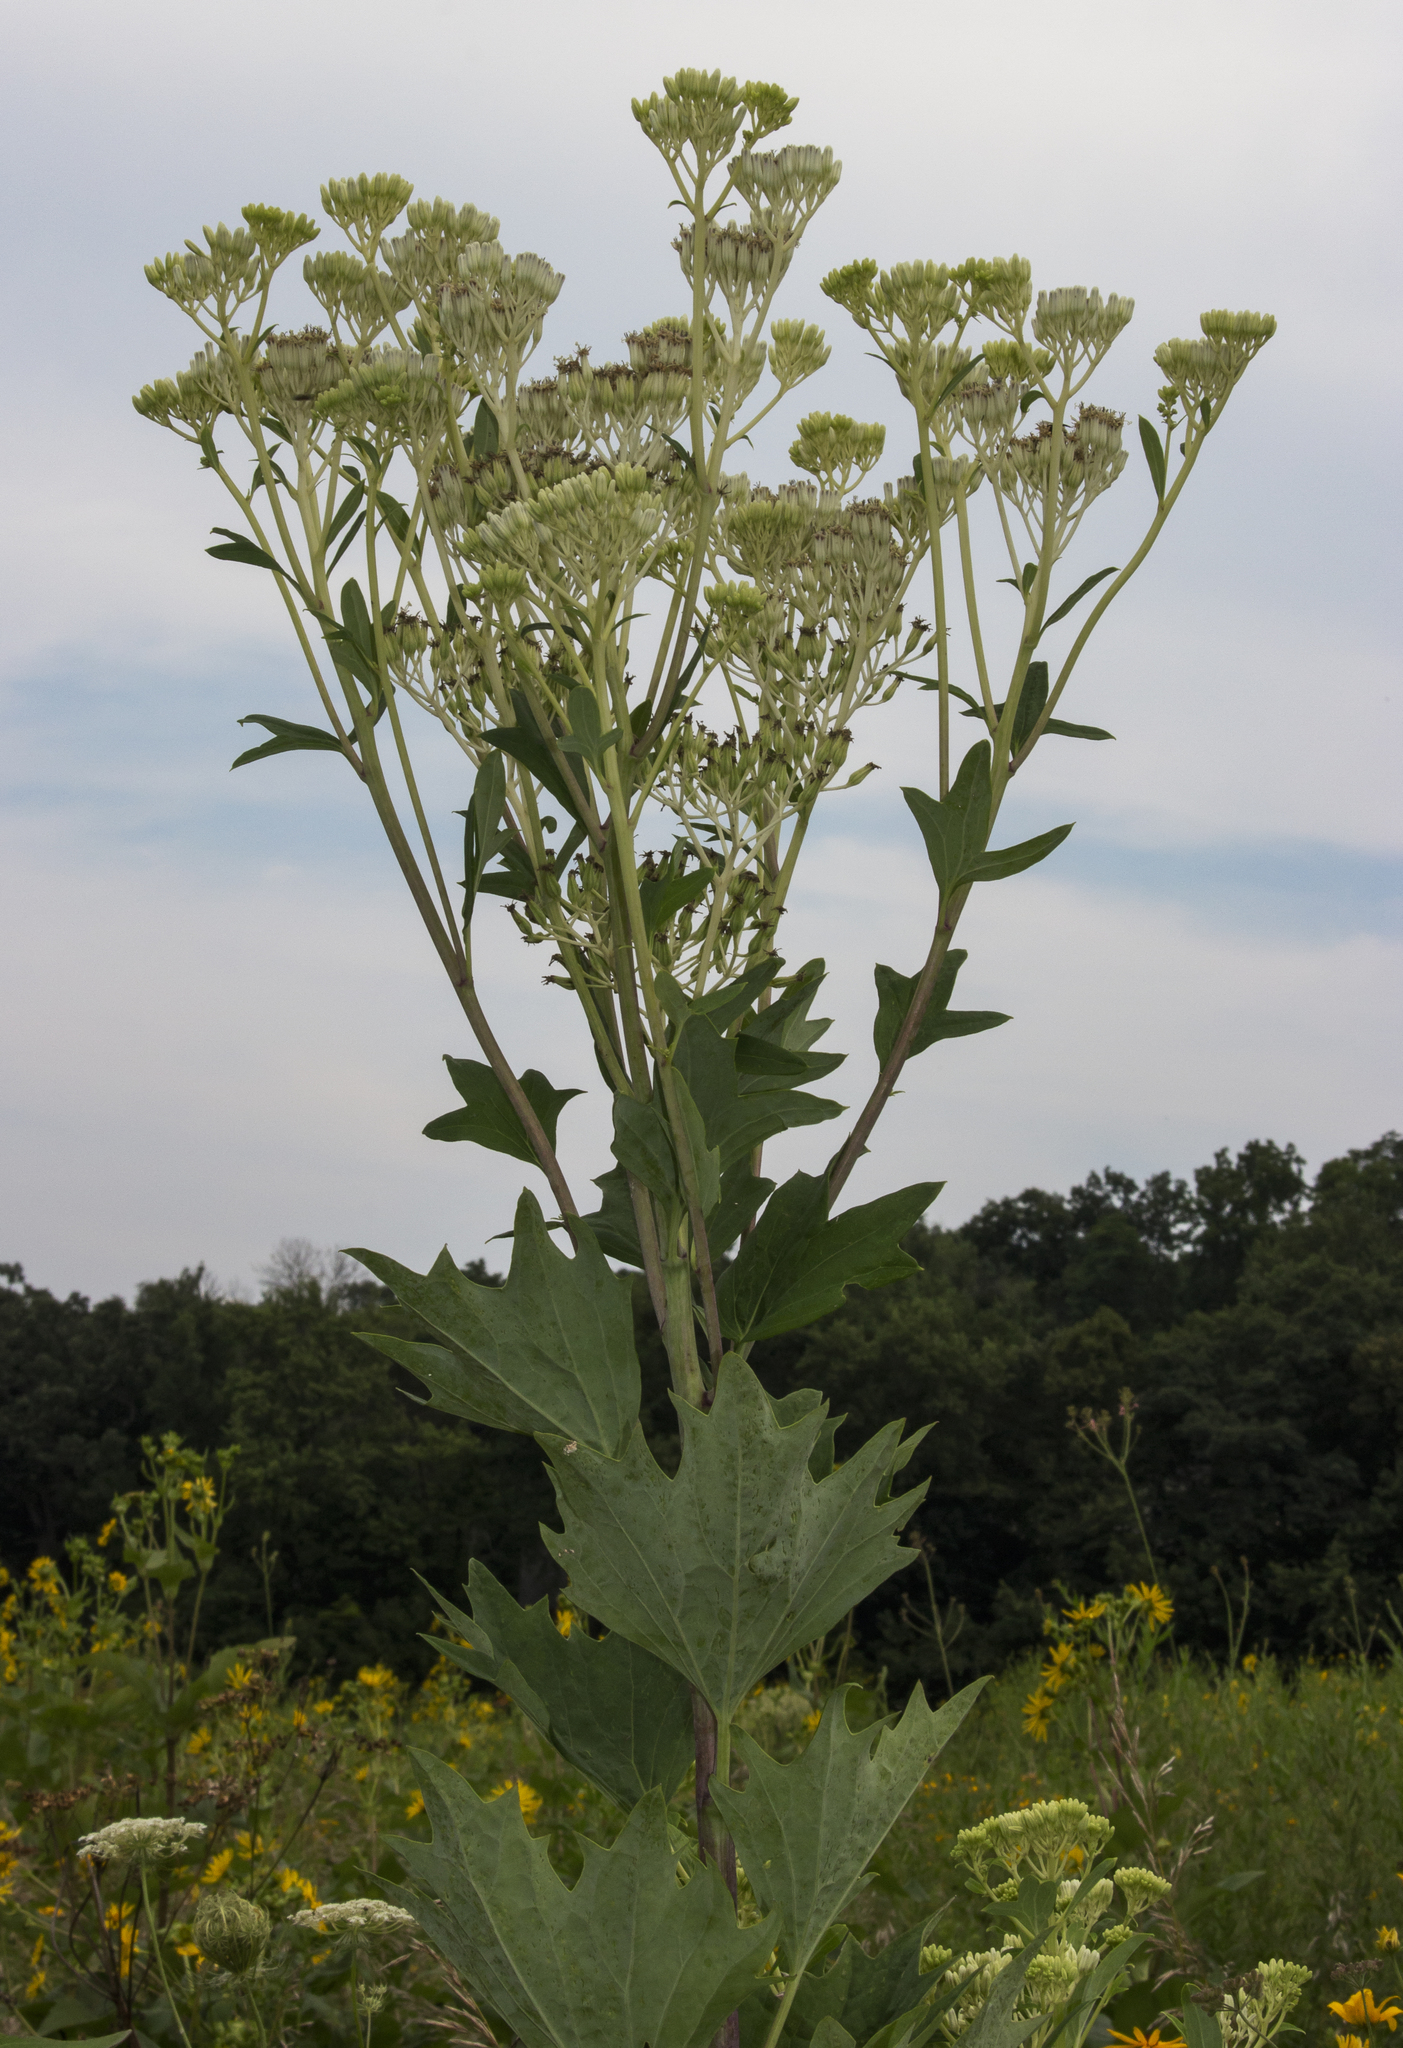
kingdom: Plantae
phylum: Tracheophyta
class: Magnoliopsida
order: Asterales
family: Asteraceae
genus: Arnoglossum
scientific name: Arnoglossum atriplicifolium
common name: Pale indian-plantain
